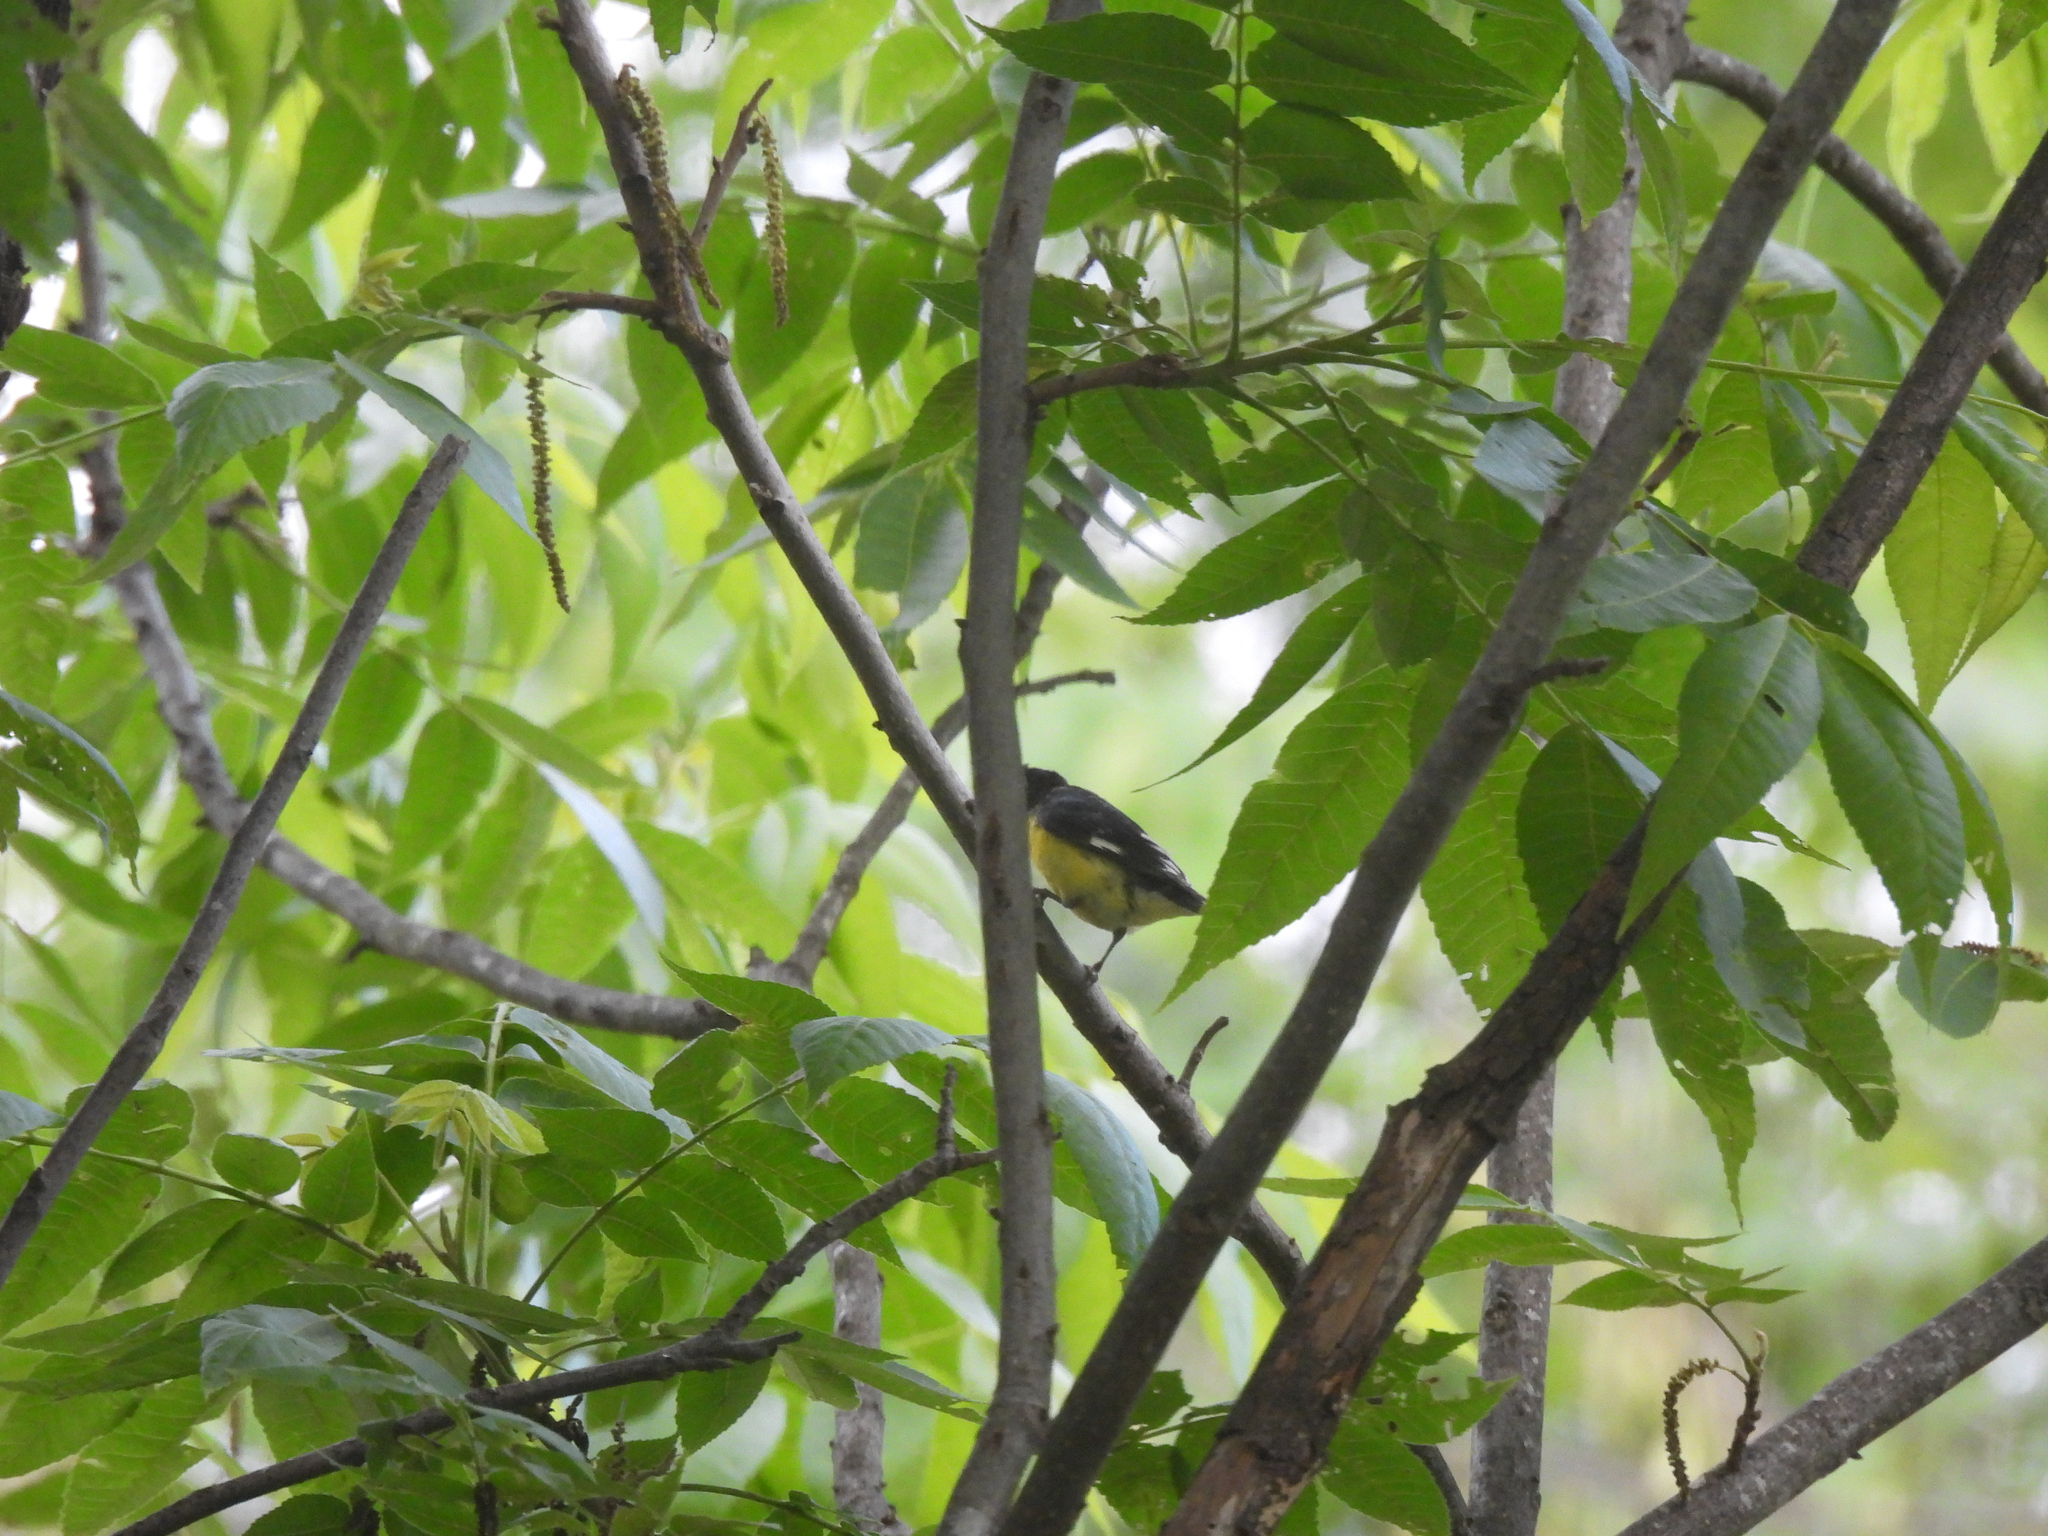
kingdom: Animalia
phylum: Chordata
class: Aves
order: Passeriformes
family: Fringillidae
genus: Spinus
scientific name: Spinus psaltria
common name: Lesser goldfinch
